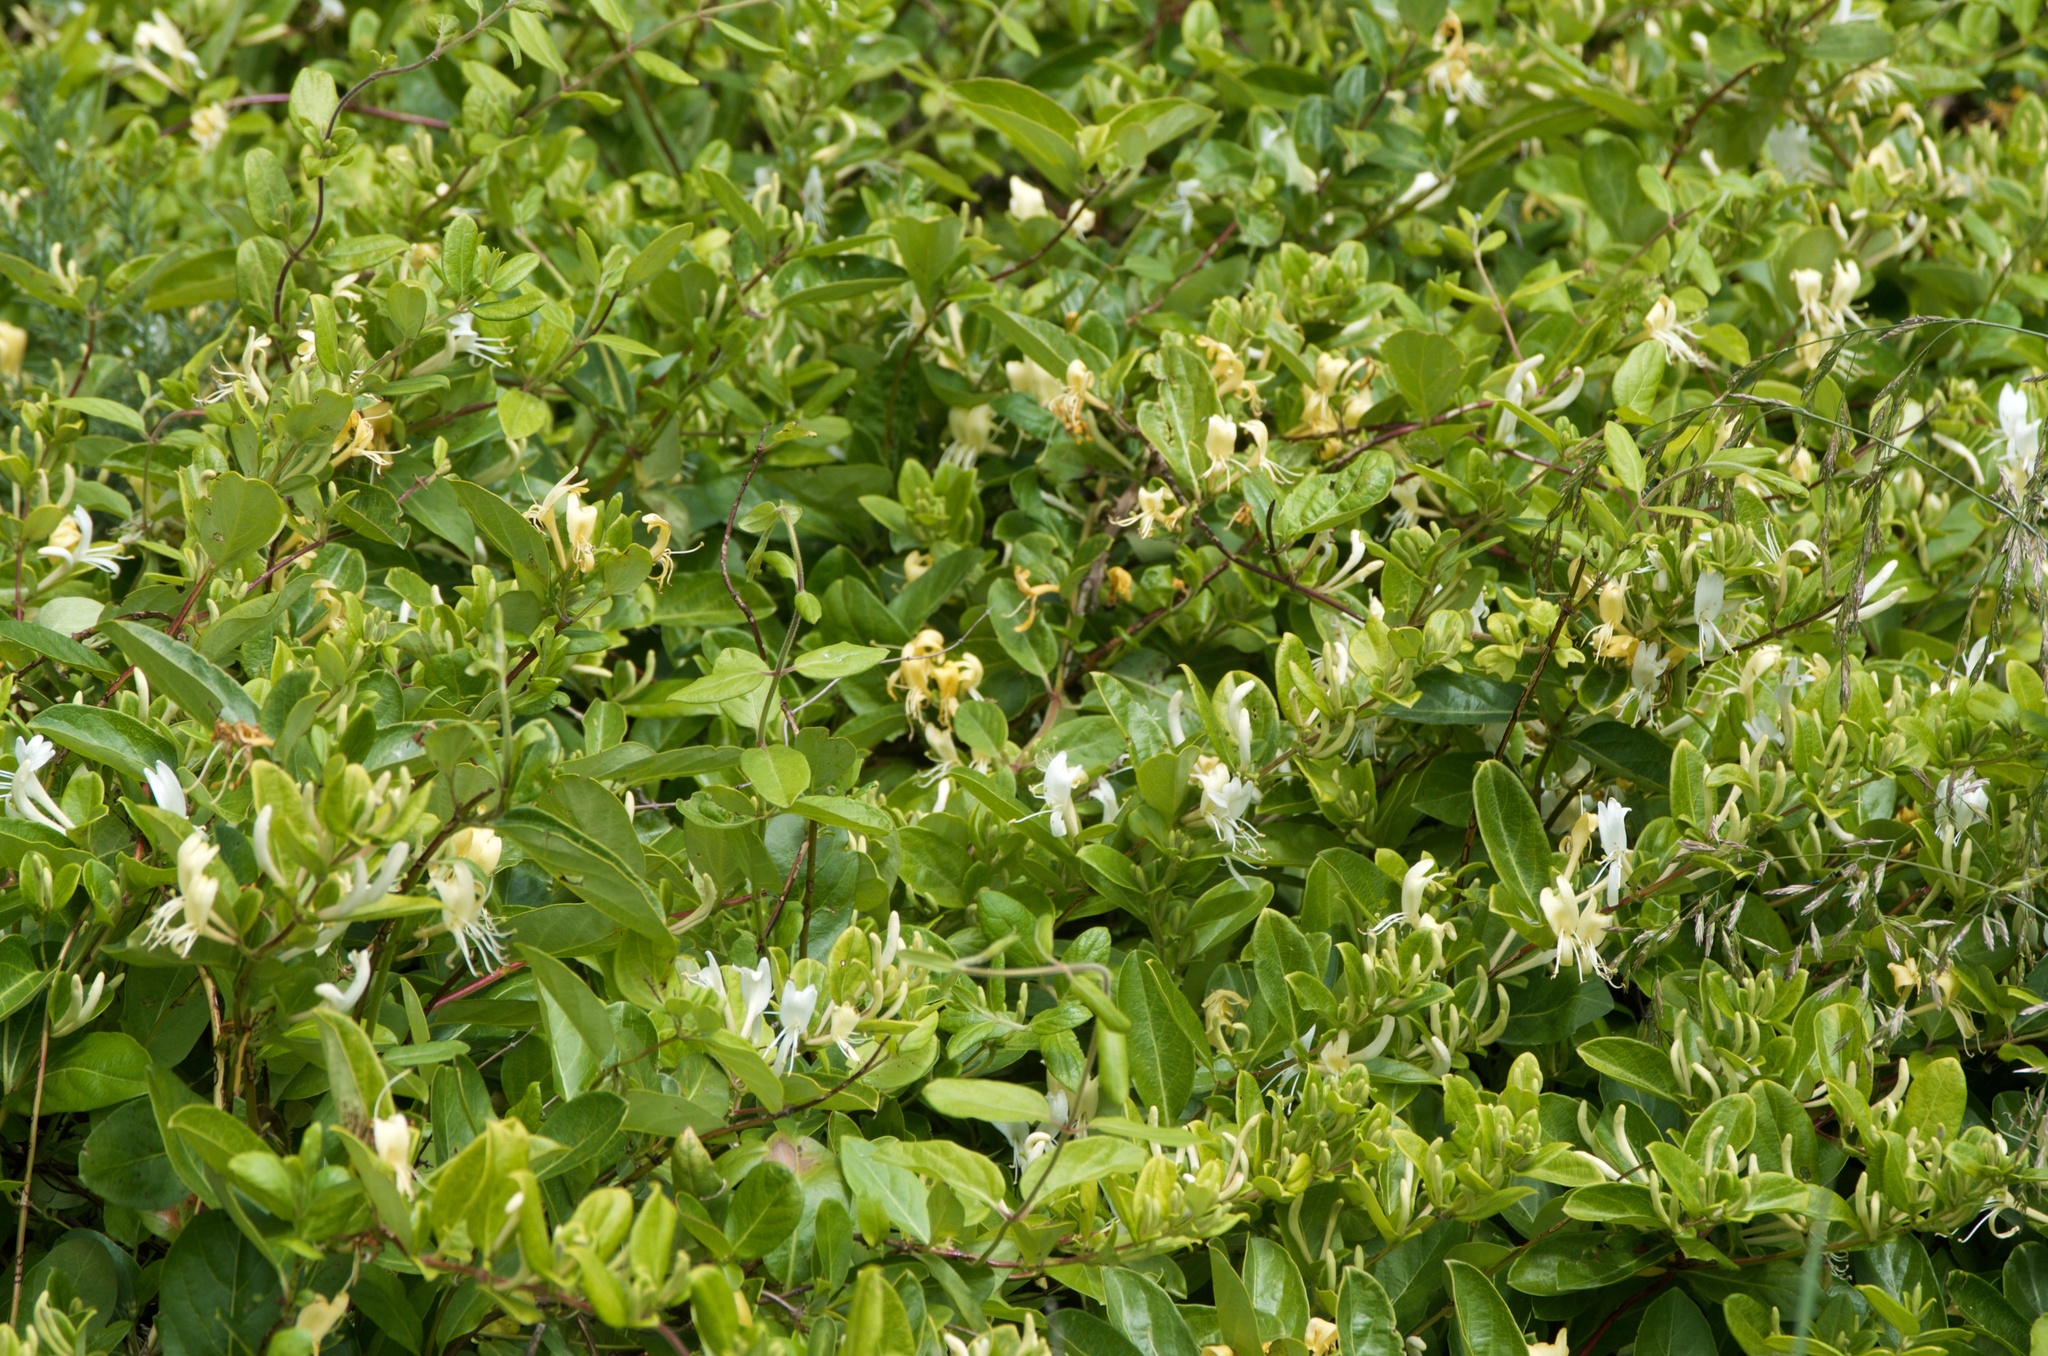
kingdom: Plantae
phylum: Tracheophyta
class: Magnoliopsida
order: Dipsacales
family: Caprifoliaceae
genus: Lonicera
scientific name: Lonicera japonica
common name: Japanese honeysuckle
